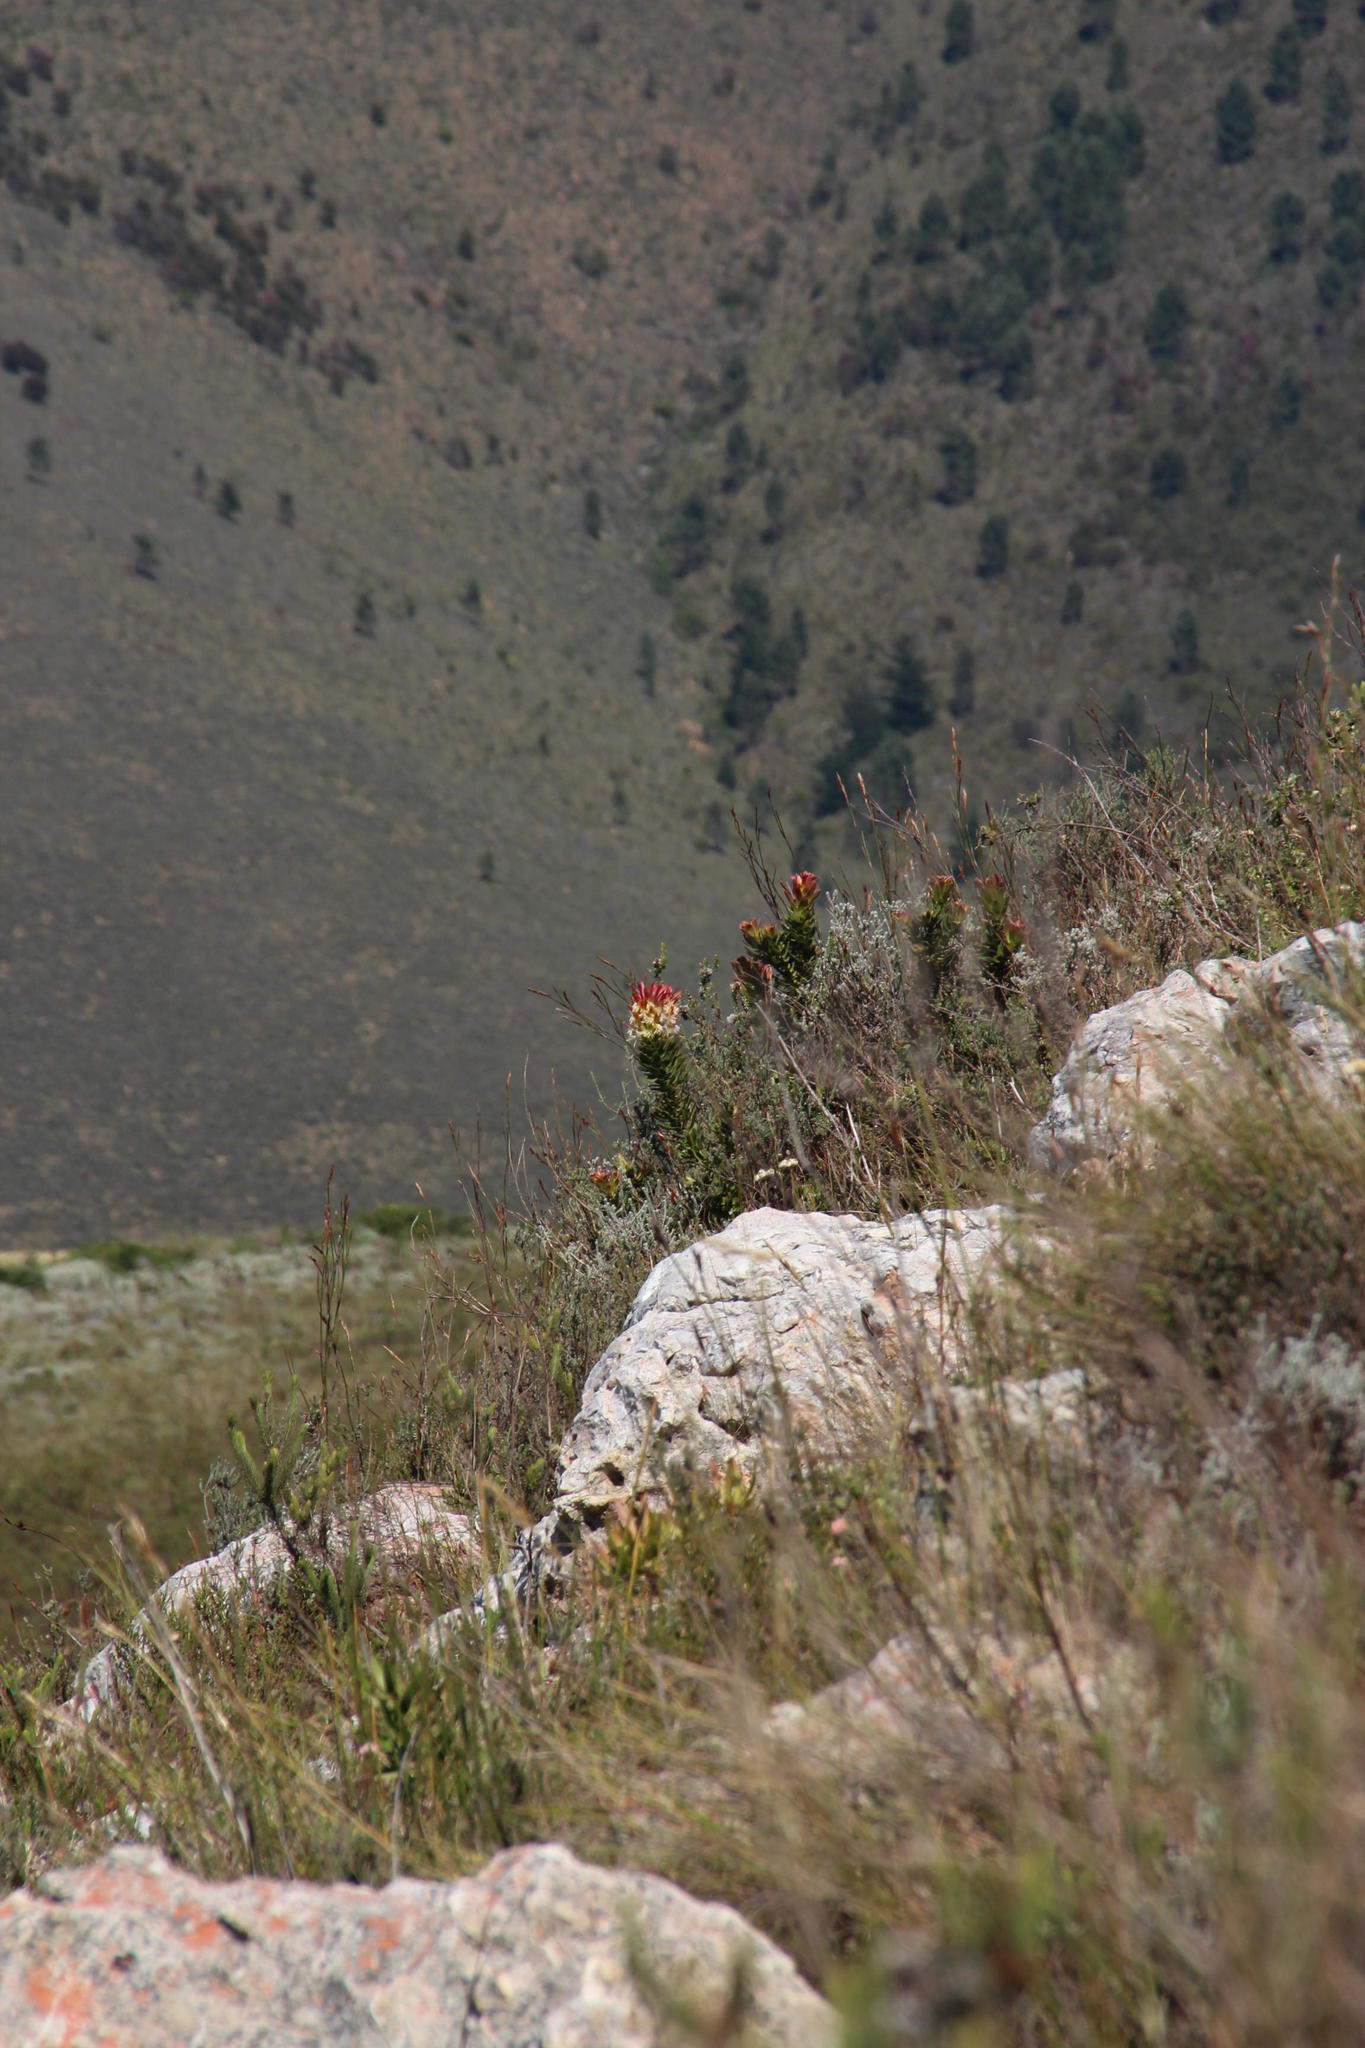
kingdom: Plantae
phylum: Tracheophyta
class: Magnoliopsida
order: Proteales
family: Proteaceae
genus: Mimetes
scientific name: Mimetes cucullatus
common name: Common pagoda
